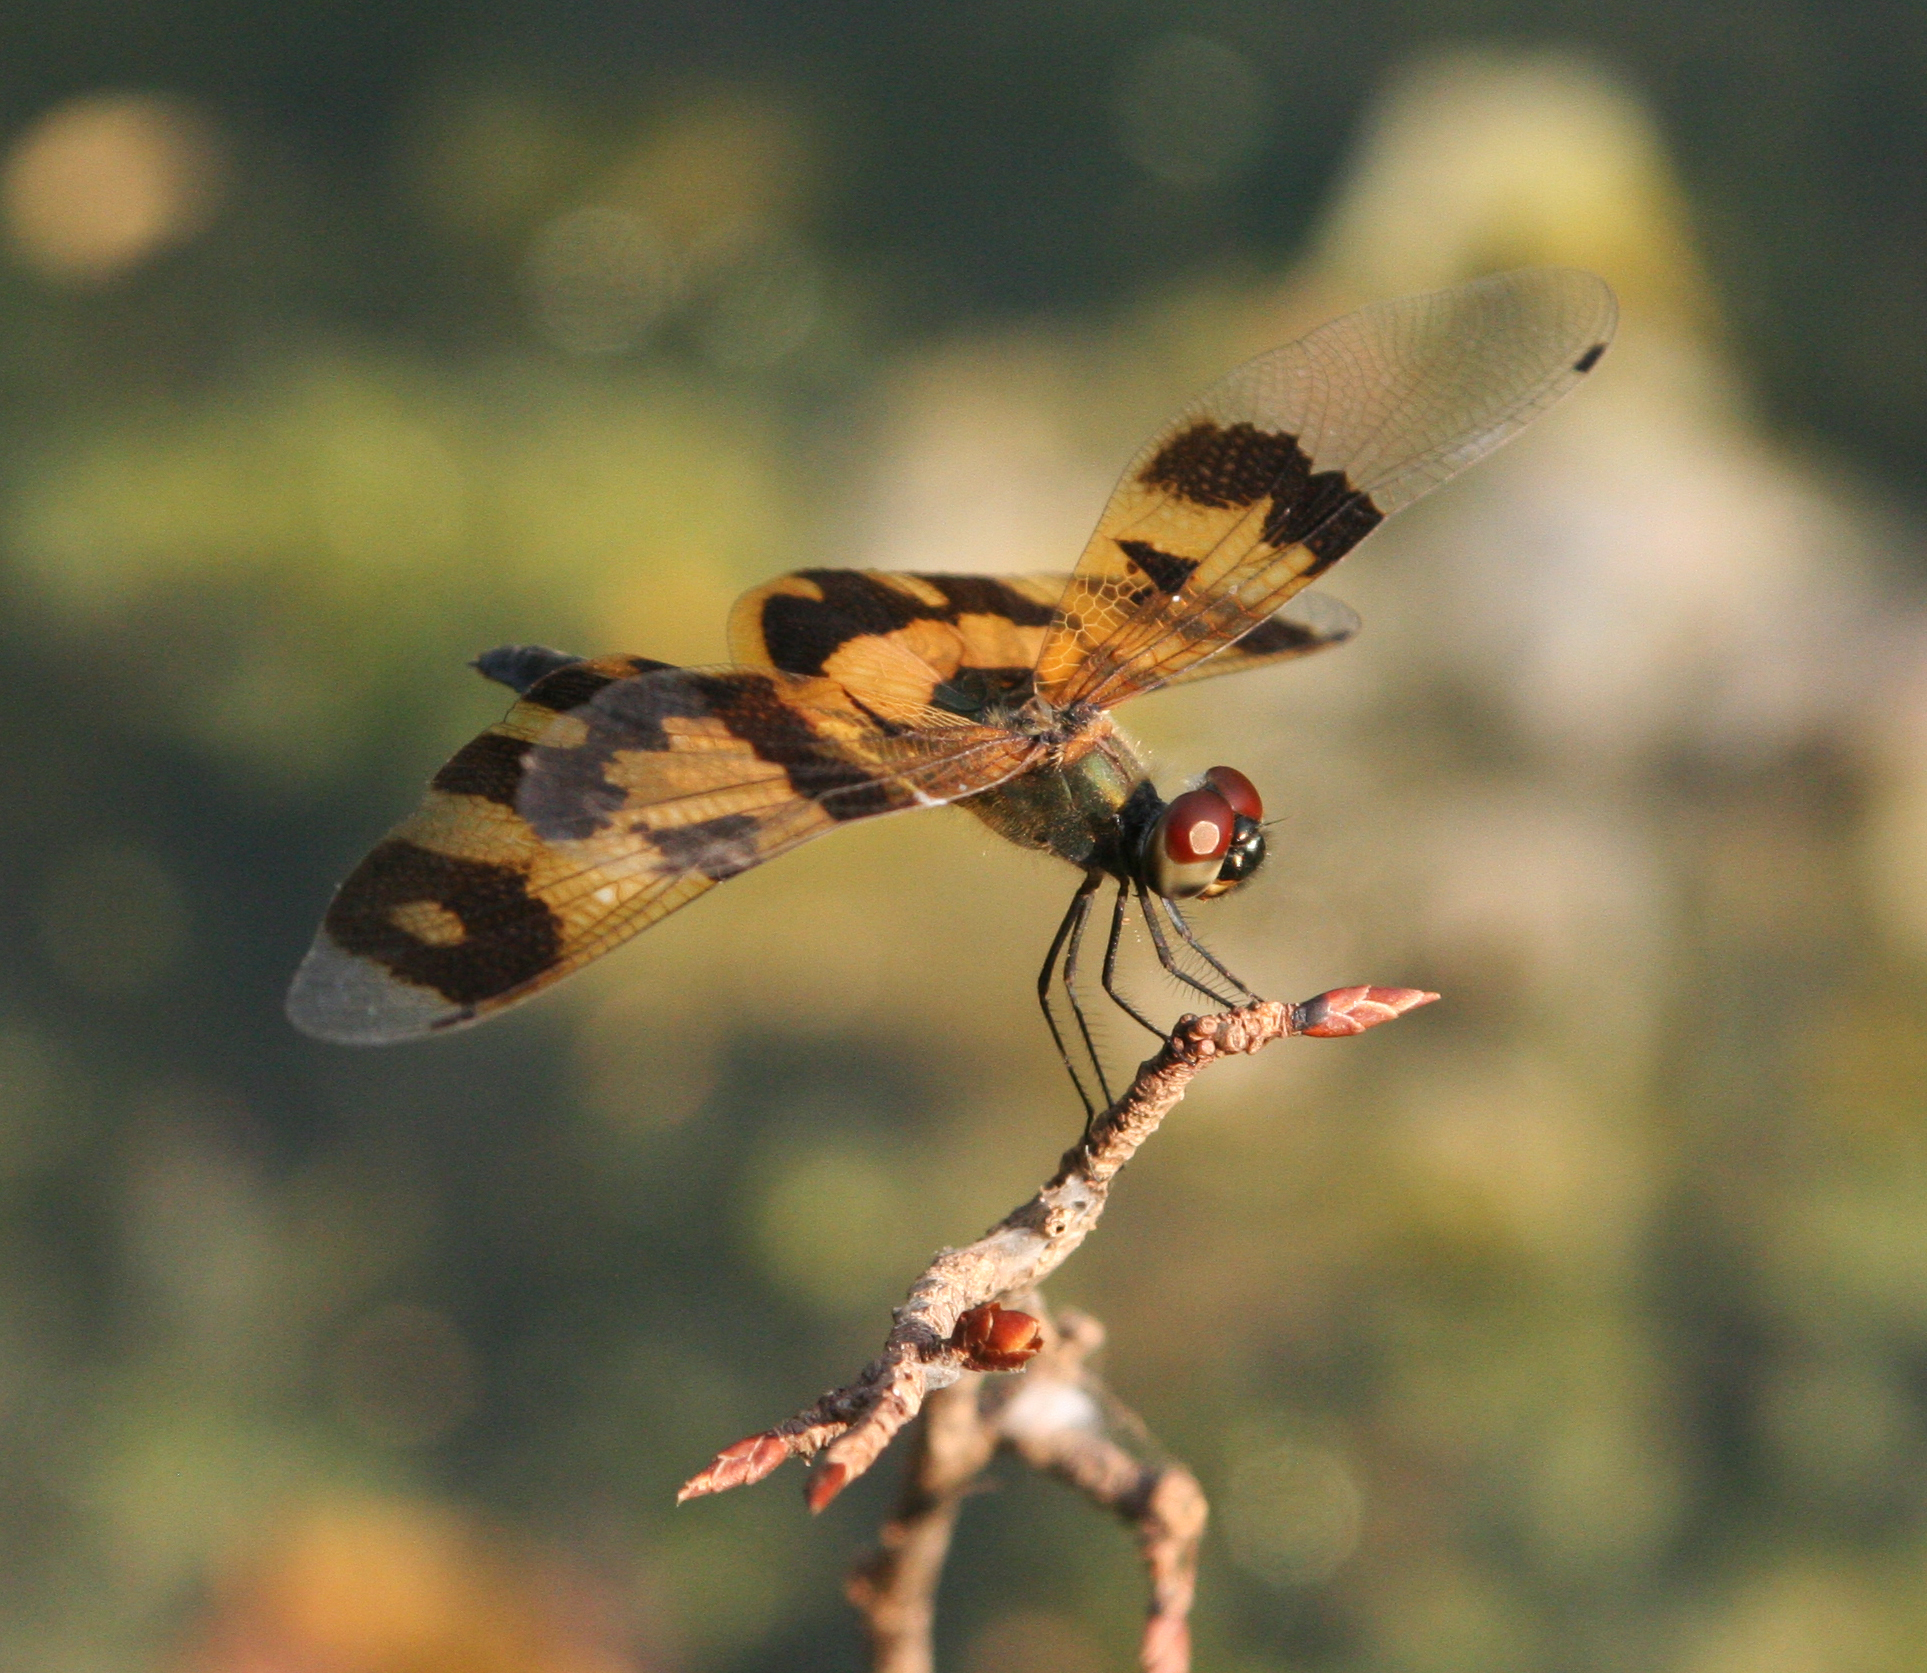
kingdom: Animalia
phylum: Arthropoda
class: Insecta
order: Odonata
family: Libellulidae
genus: Rhyothemis
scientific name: Rhyothemis variegata
